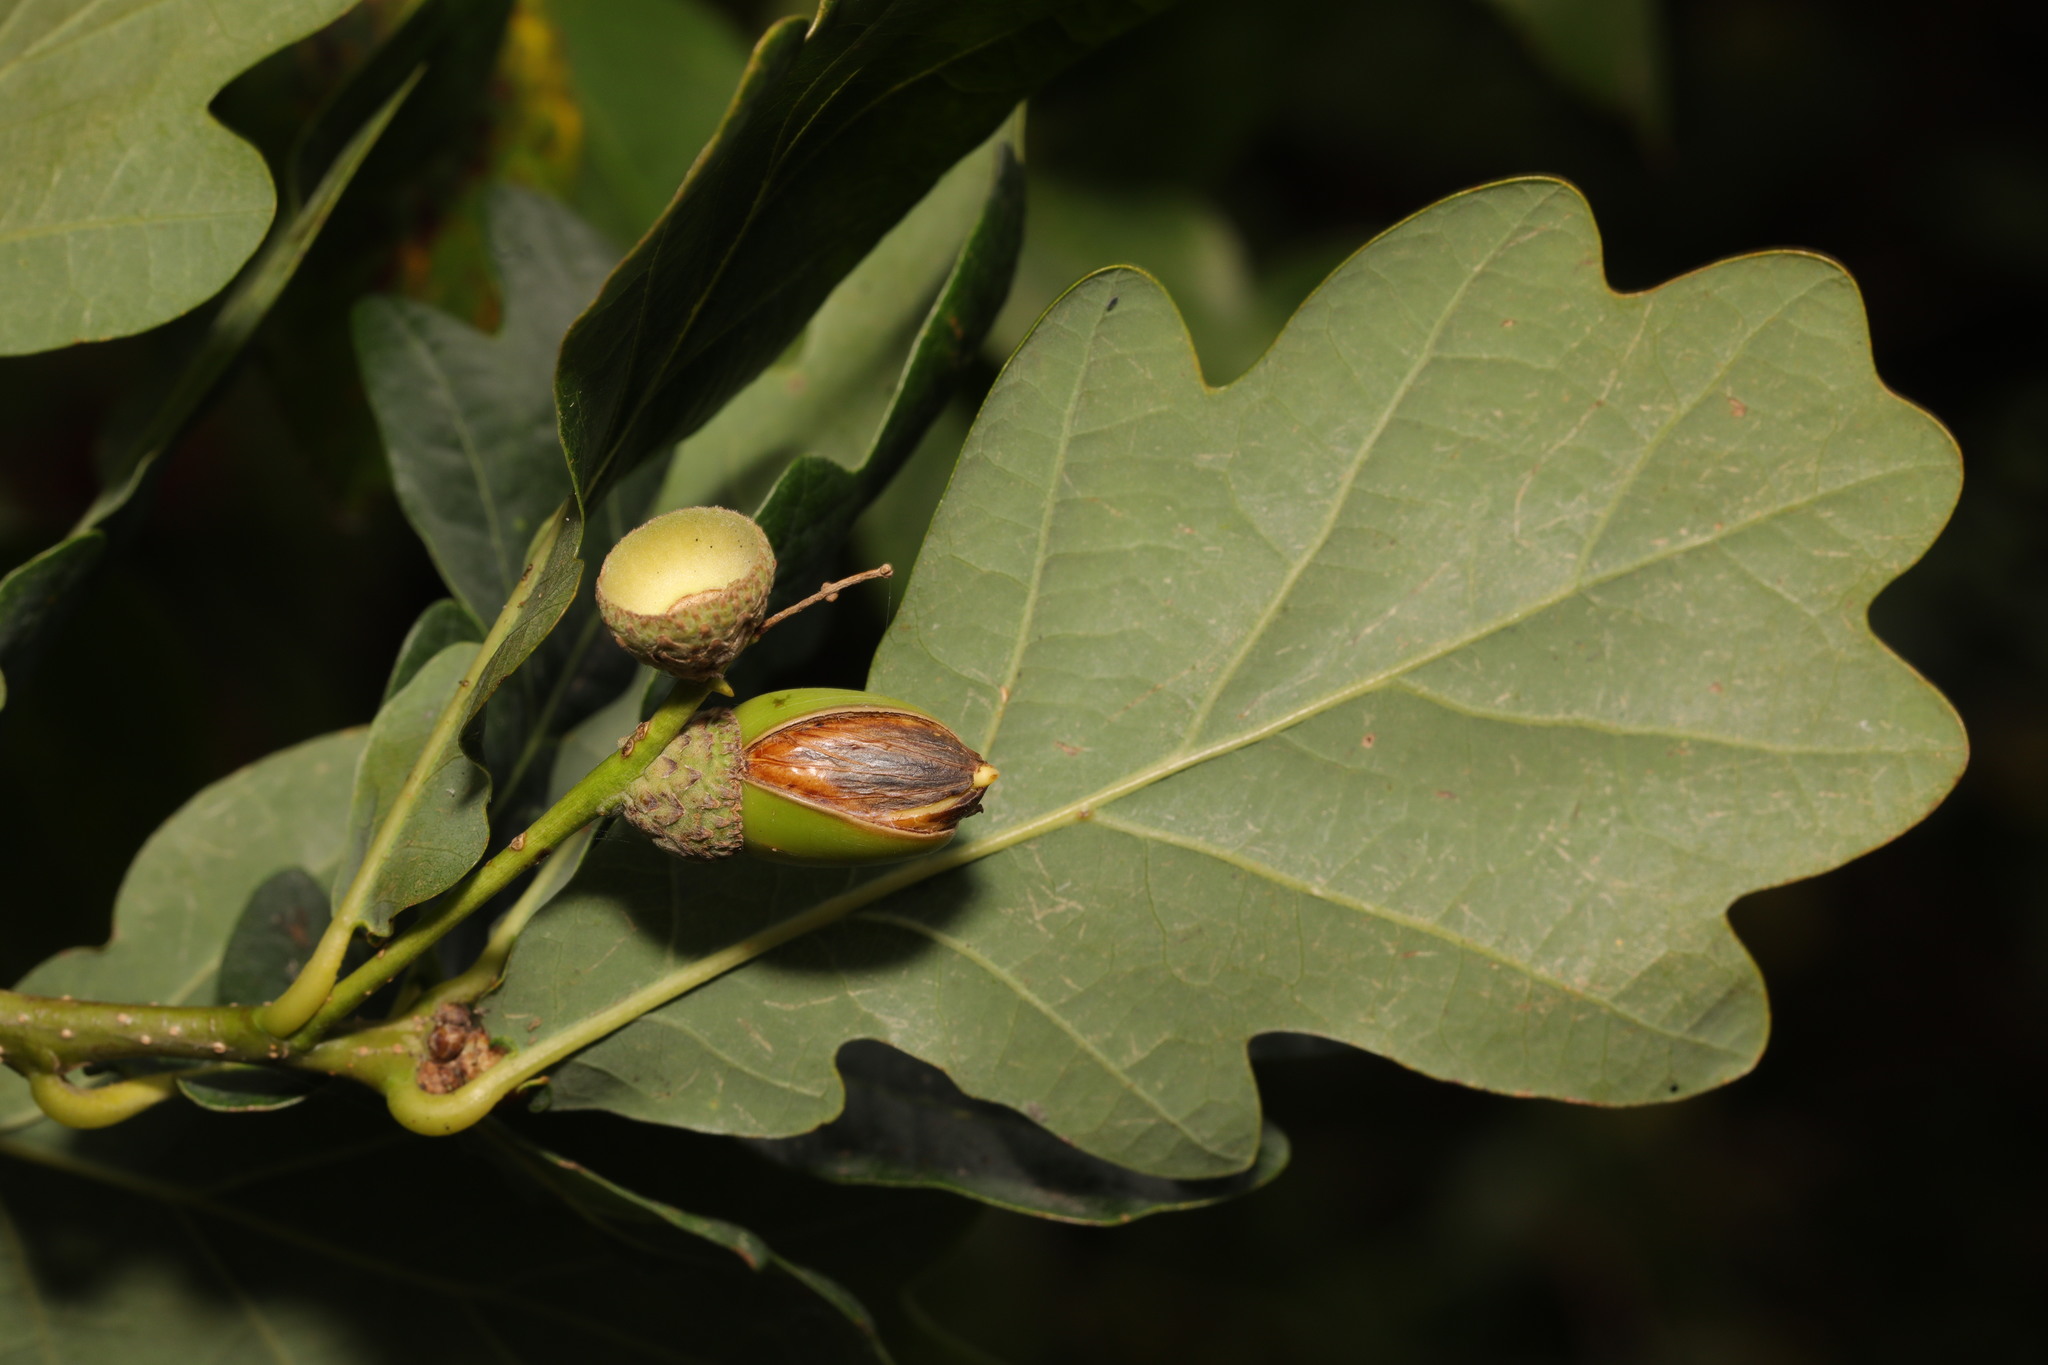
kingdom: Plantae
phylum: Tracheophyta
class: Magnoliopsida
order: Fagales
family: Fagaceae
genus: Quercus
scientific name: Quercus robur
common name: Pedunculate oak
